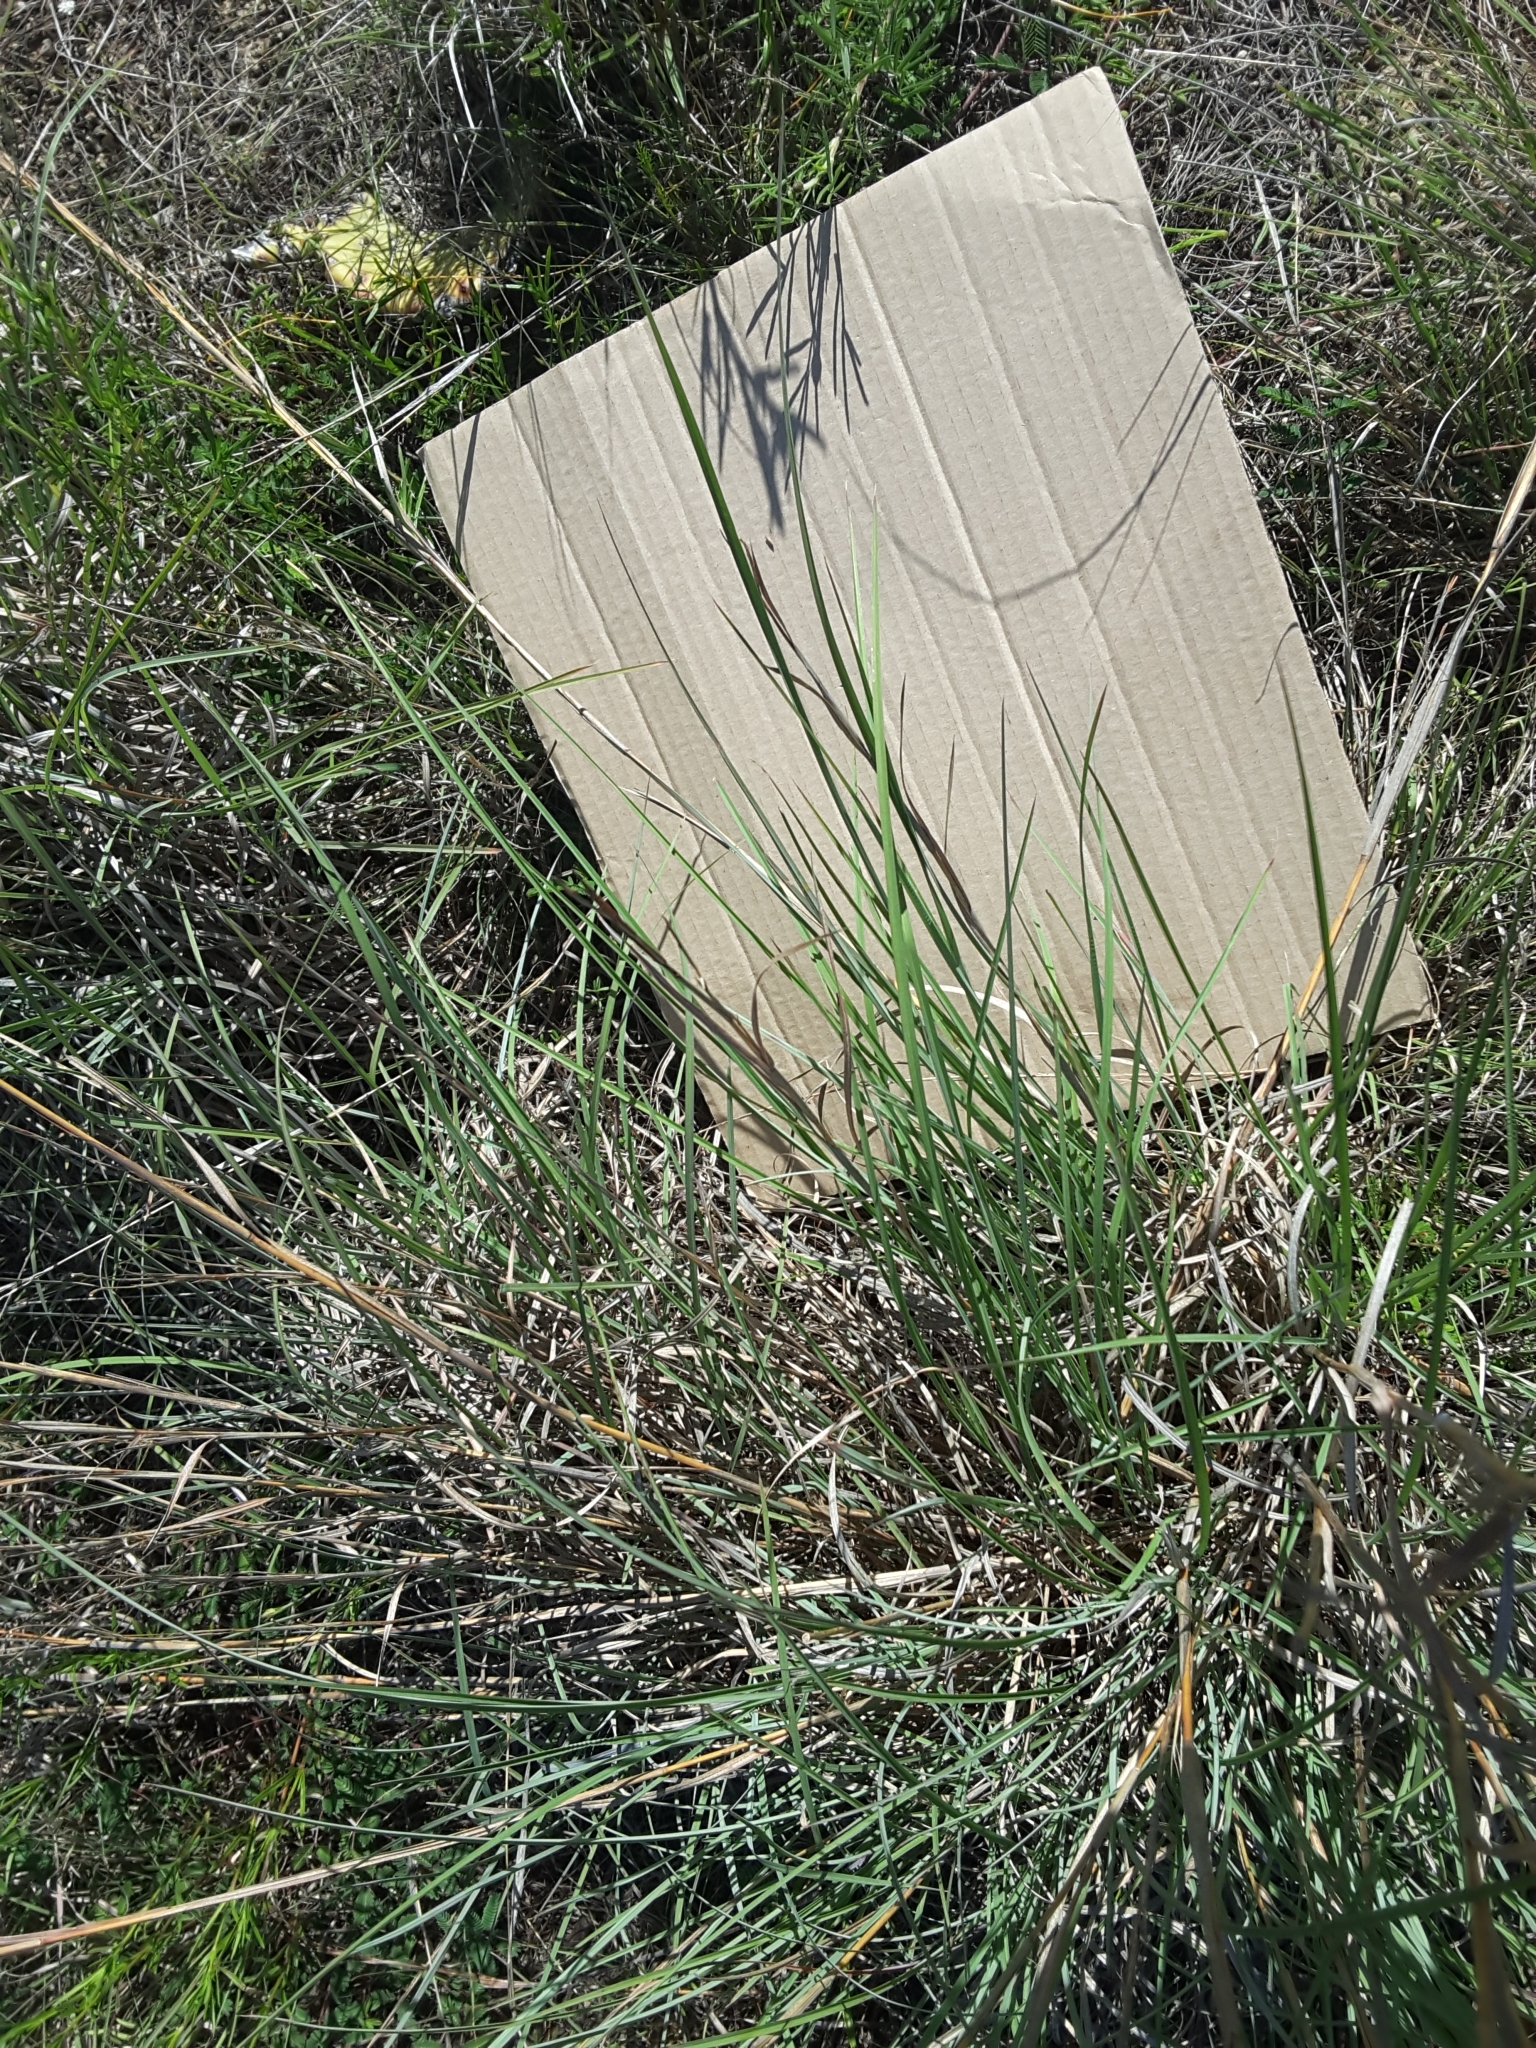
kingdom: Plantae
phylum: Tracheophyta
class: Liliopsida
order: Poales
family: Poaceae
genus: Schizachyrium
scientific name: Schizachyrium scoparium
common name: Little bluestem
